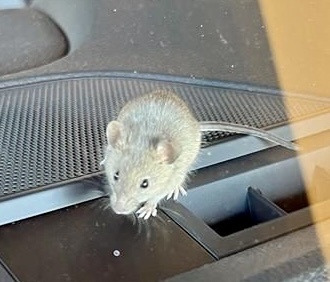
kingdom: Animalia
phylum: Chordata
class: Mammalia
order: Rodentia
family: Muridae
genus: Mus
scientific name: Mus musculus
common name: House mouse
